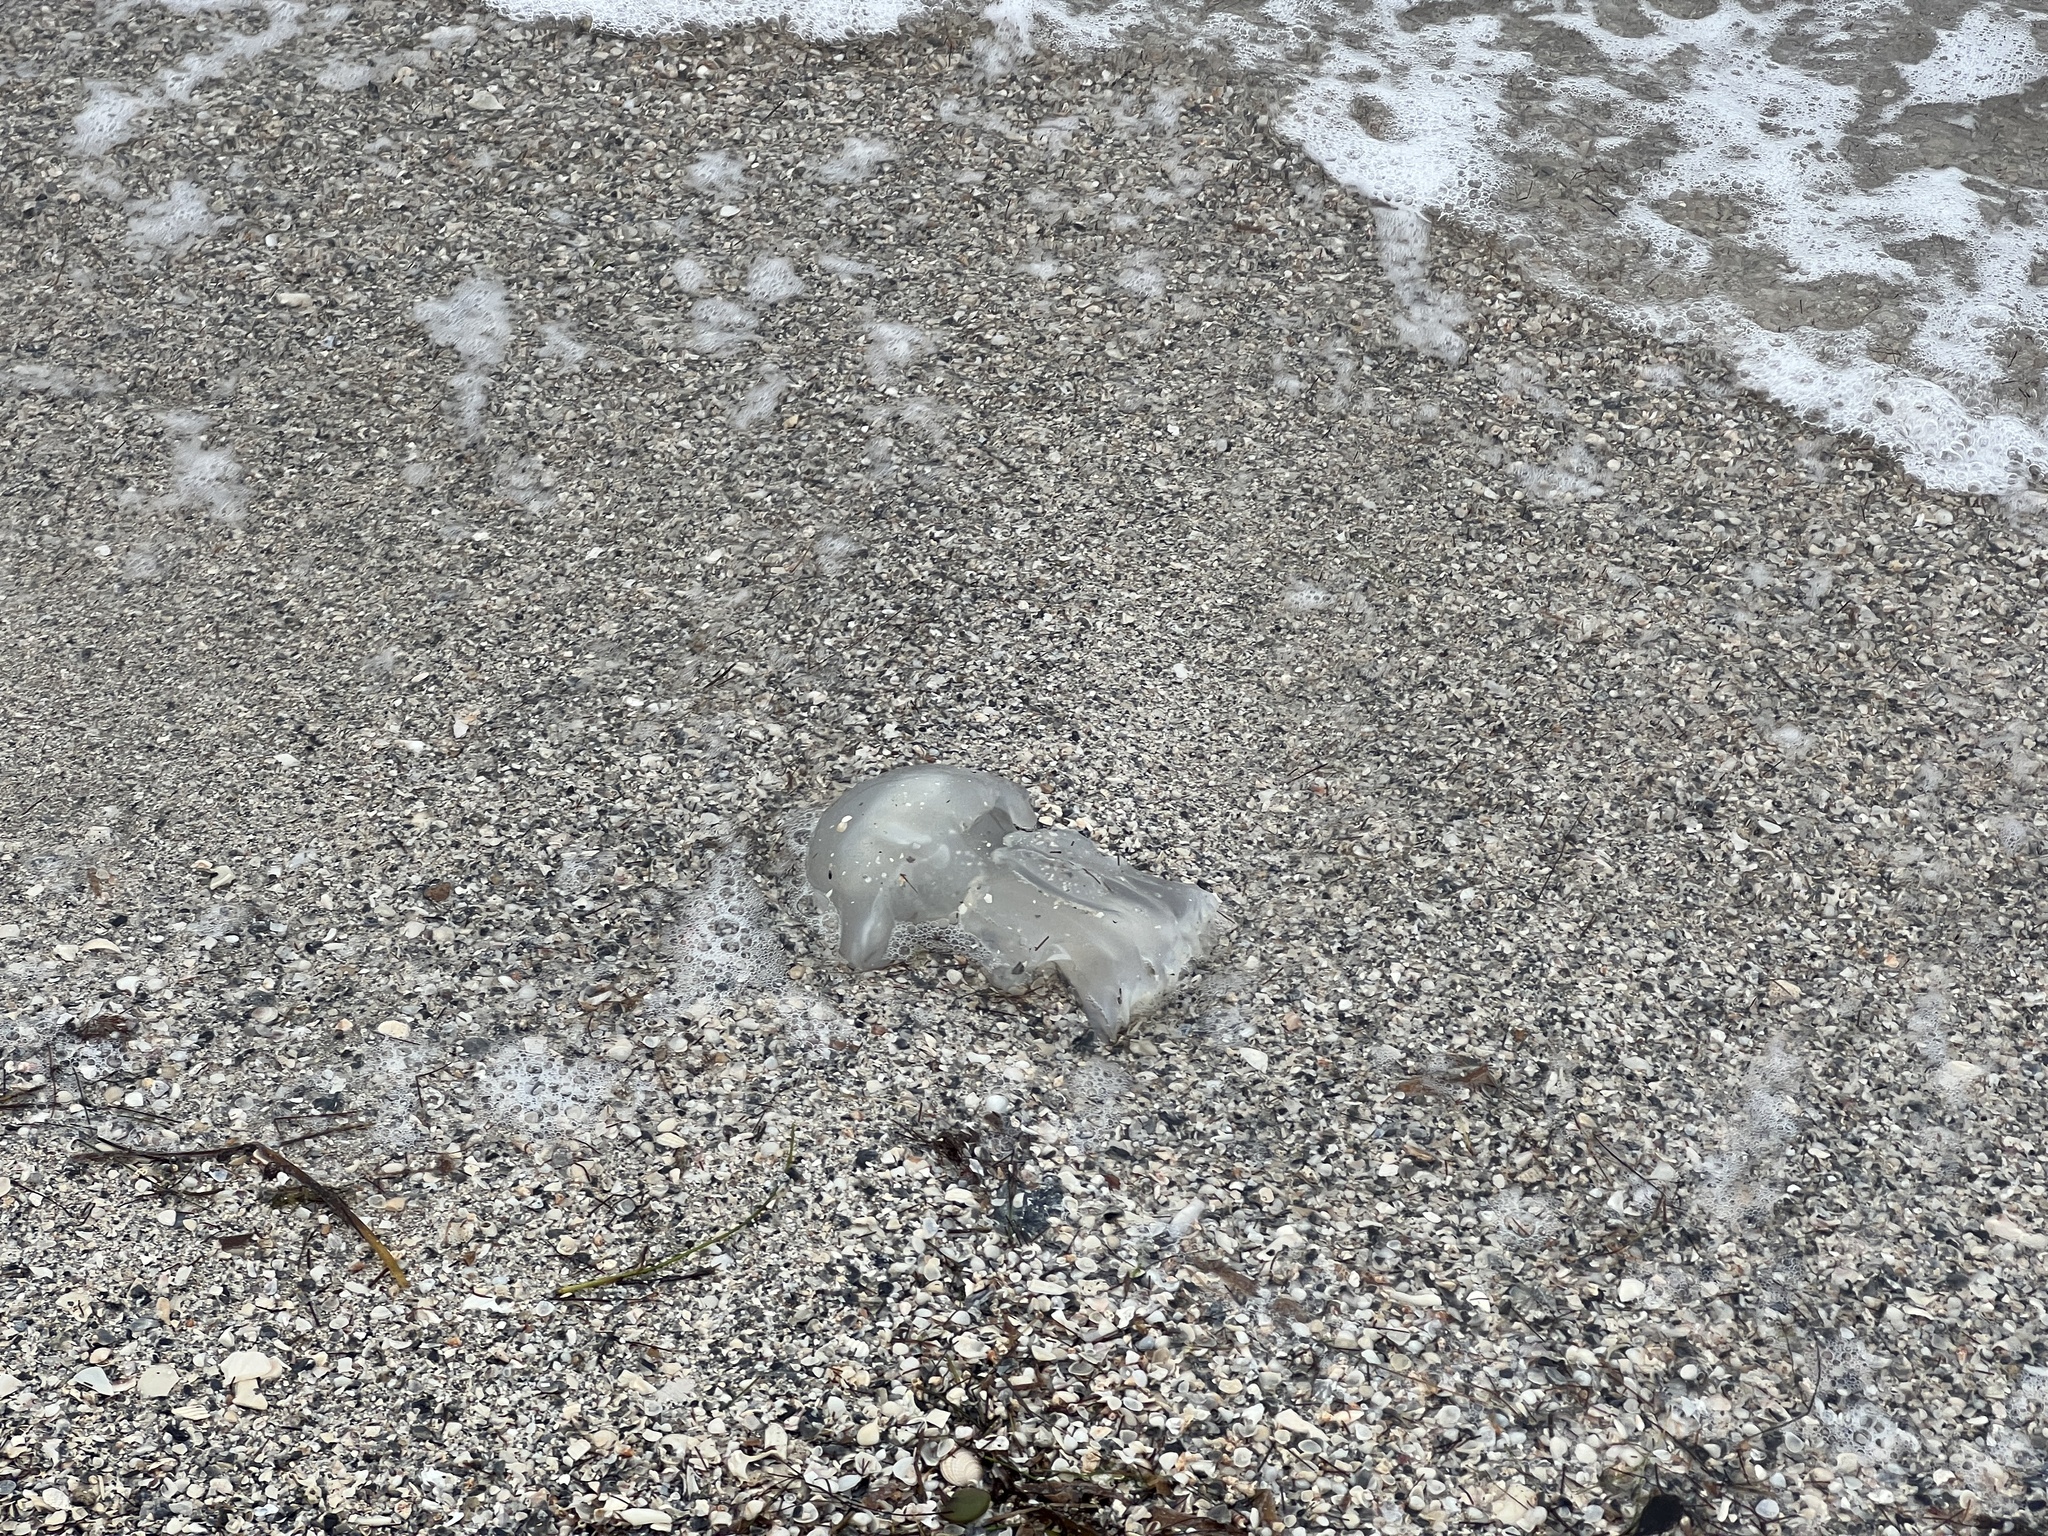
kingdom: Animalia
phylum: Cnidaria
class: Scyphozoa
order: Rhizostomeae
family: Stomolophidae
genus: Stomolophus
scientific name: Stomolophus meleagris
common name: Cabbagehead
